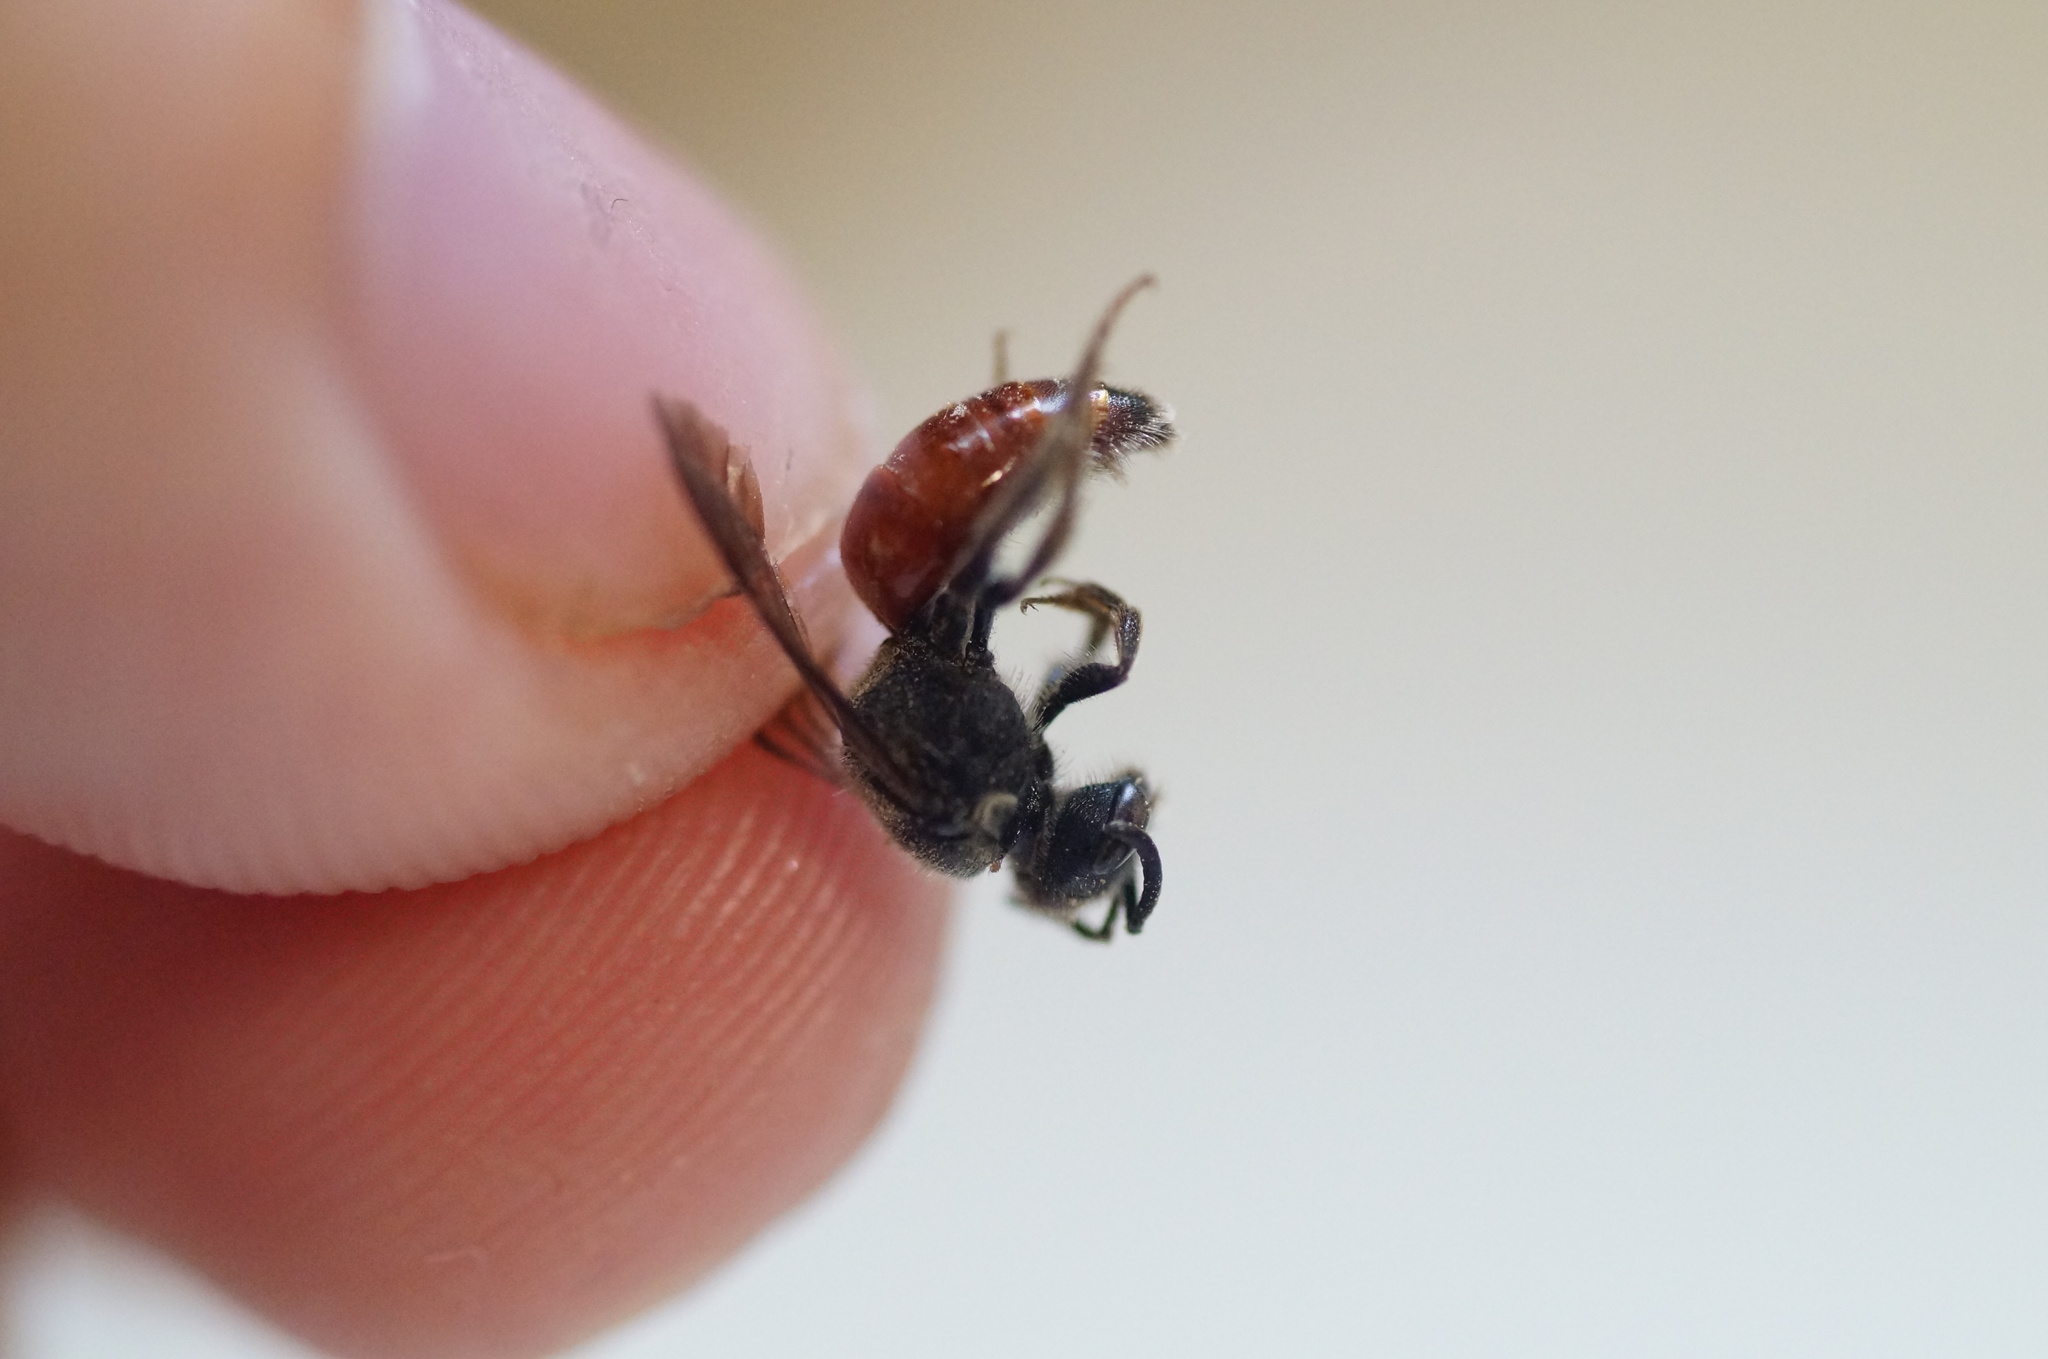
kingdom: Animalia
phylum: Arthropoda
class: Insecta
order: Hymenoptera
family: Halictidae
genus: Sphecodes
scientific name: Sphecodes
